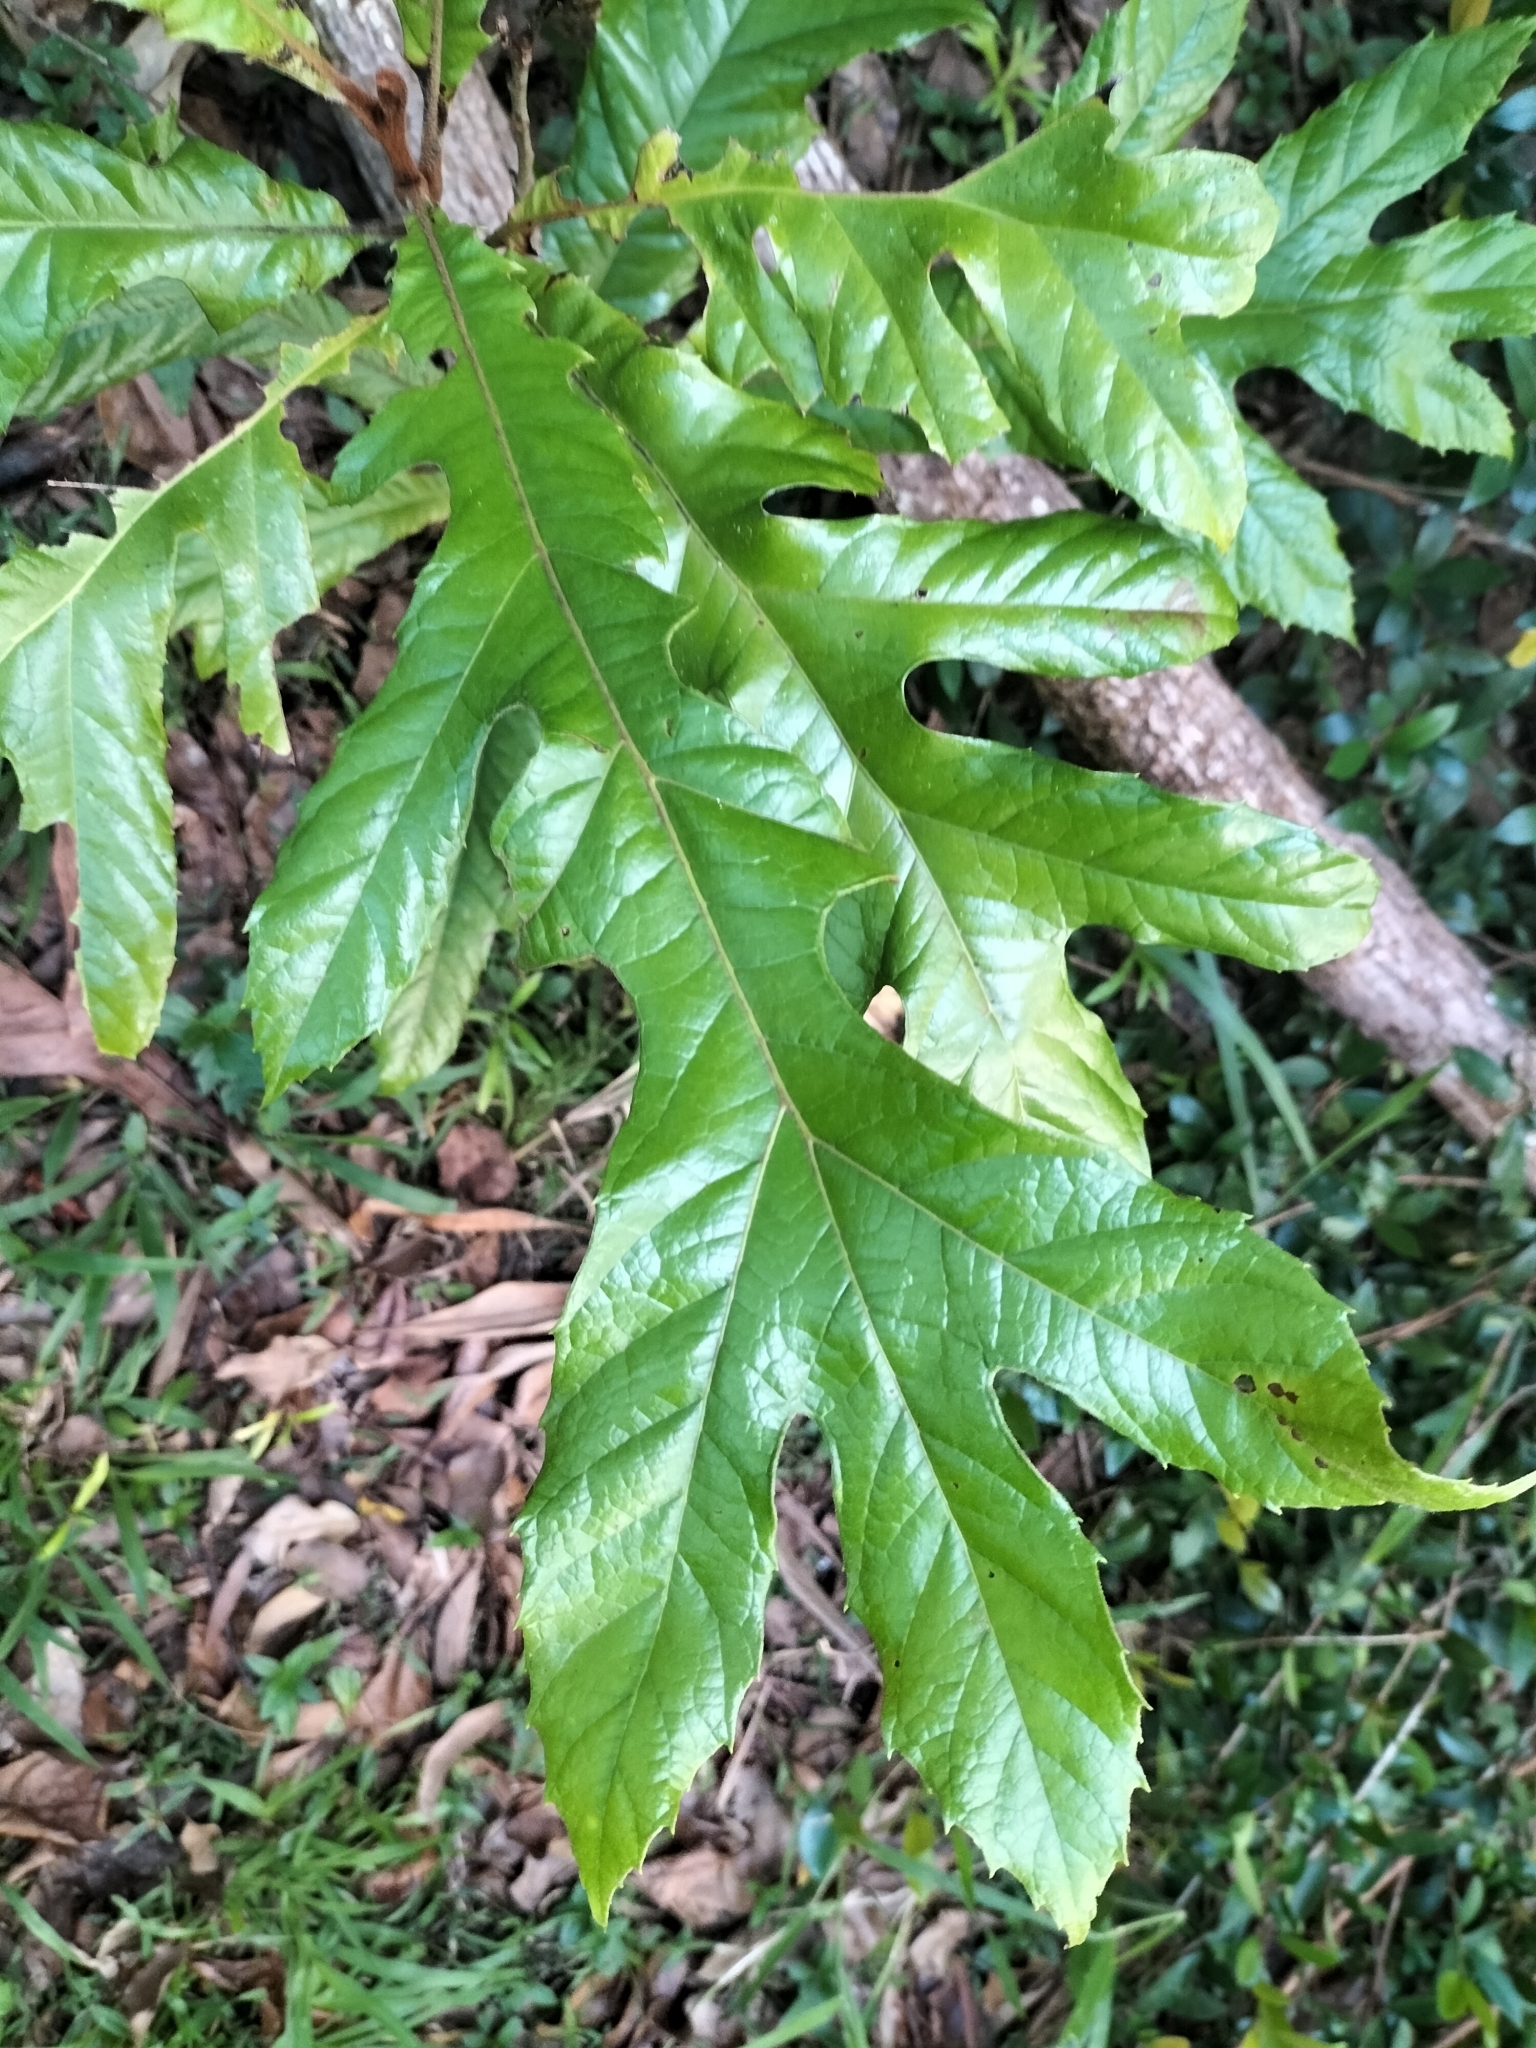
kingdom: Plantae
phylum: Tracheophyta
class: Magnoliopsida
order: Proteales
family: Proteaceae
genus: Athertonia
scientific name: Athertonia diversifolia
